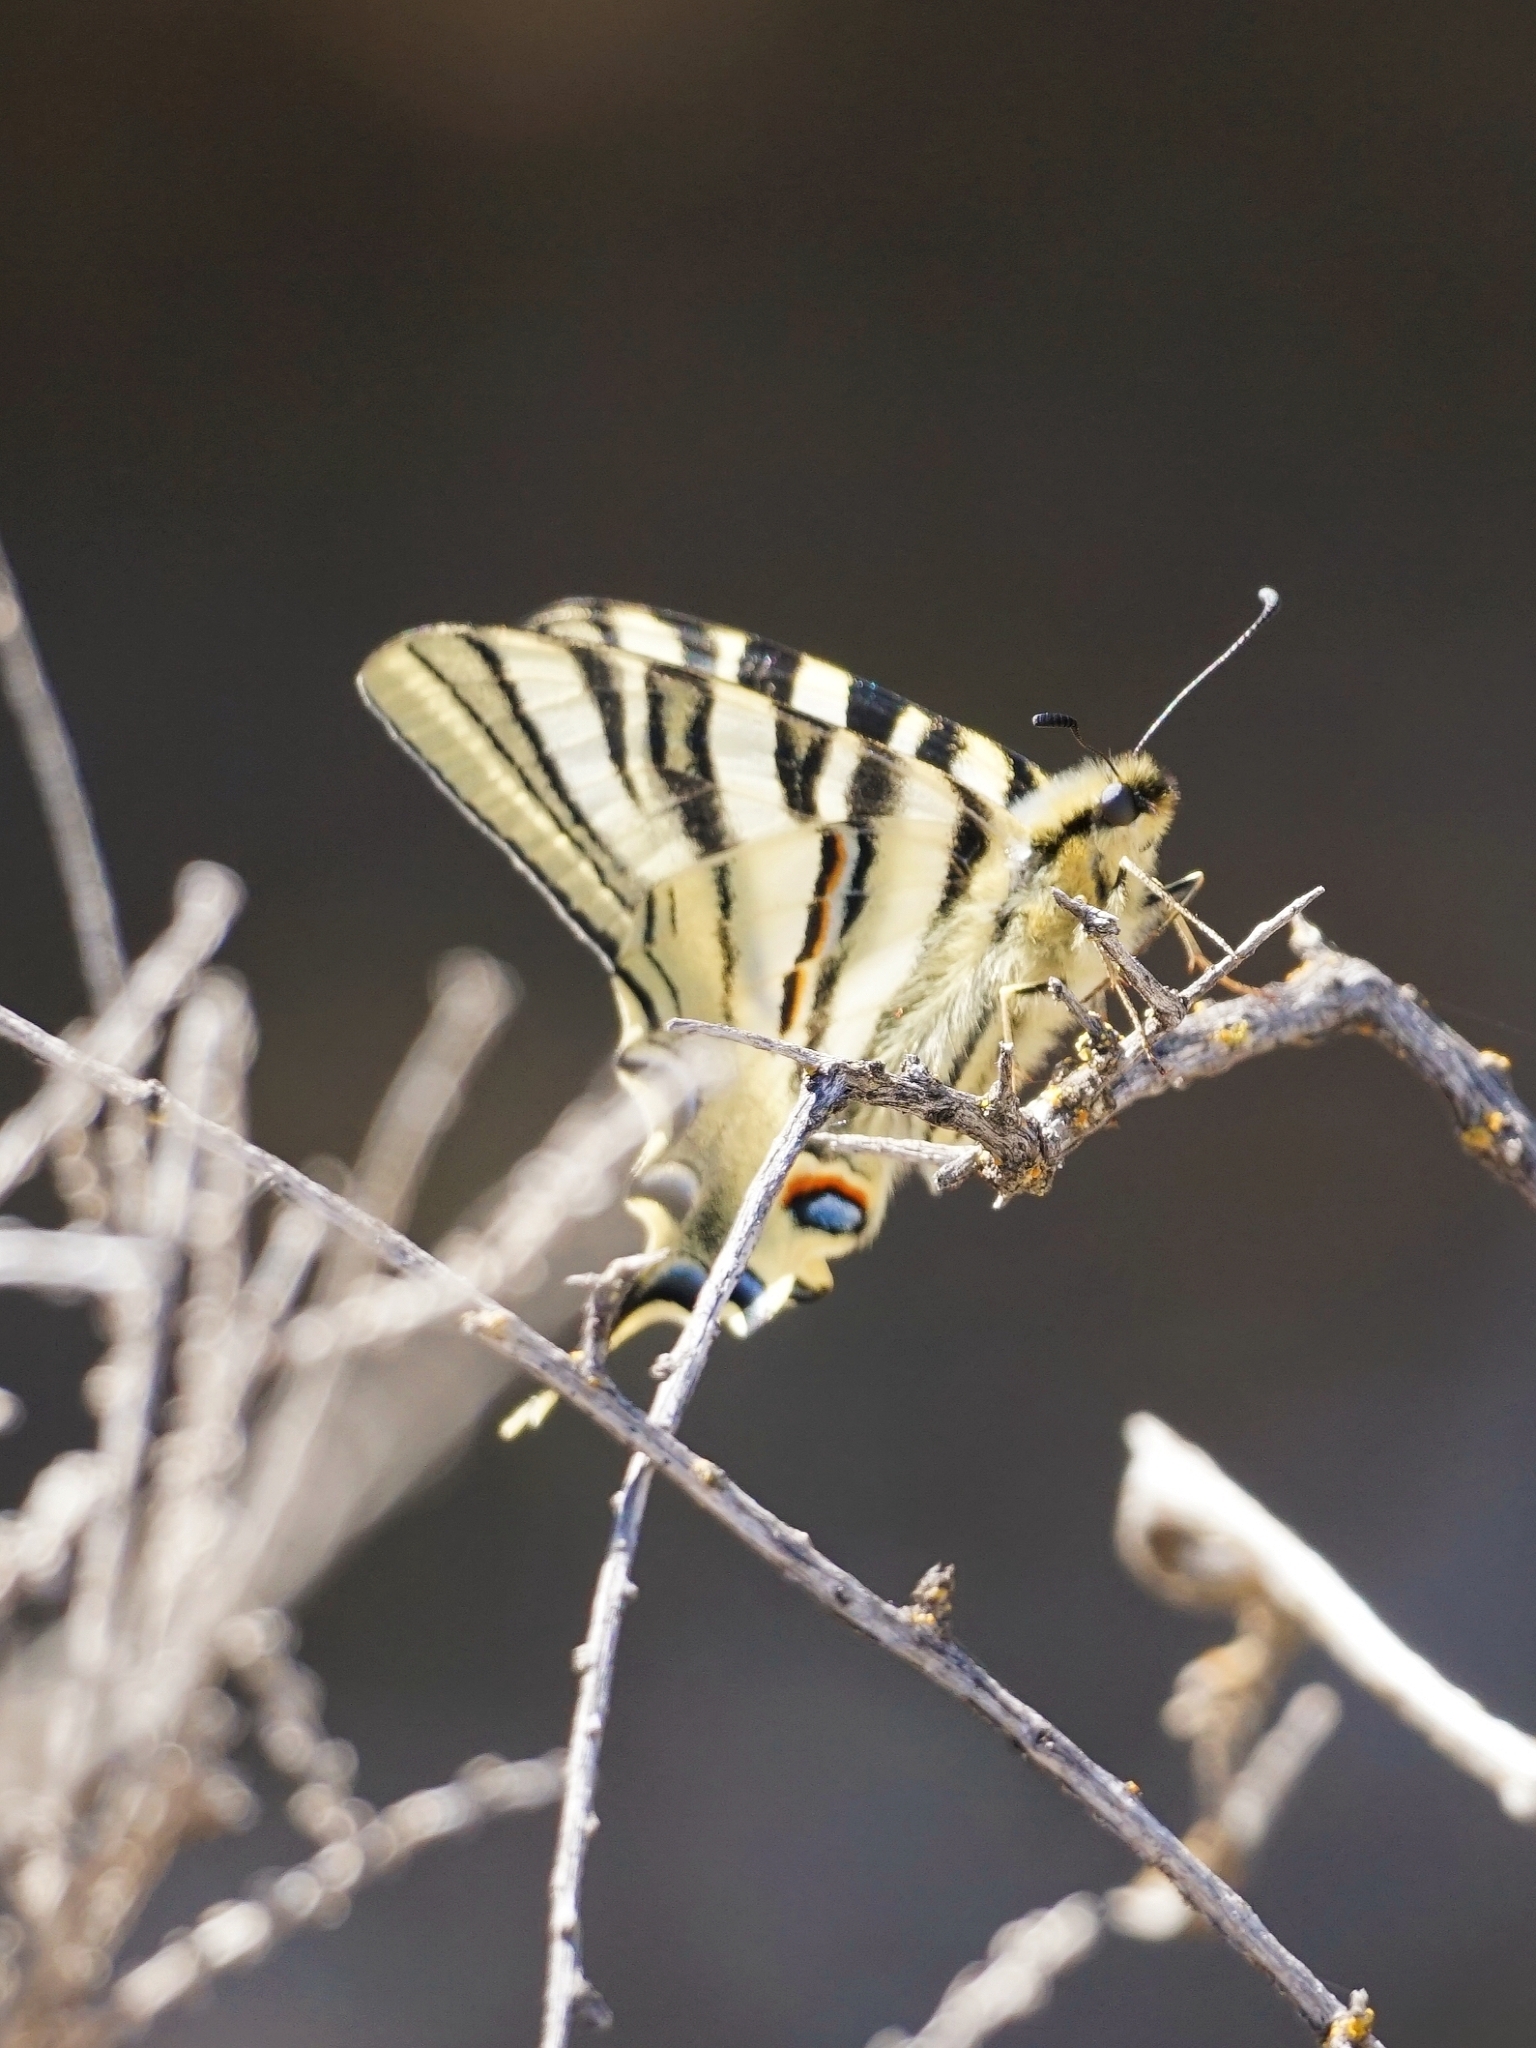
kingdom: Animalia
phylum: Arthropoda
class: Insecta
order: Lepidoptera
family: Papilionidae
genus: Iphiclides
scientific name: Iphiclides feisthamelii
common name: Iberian scarce swallowtail
